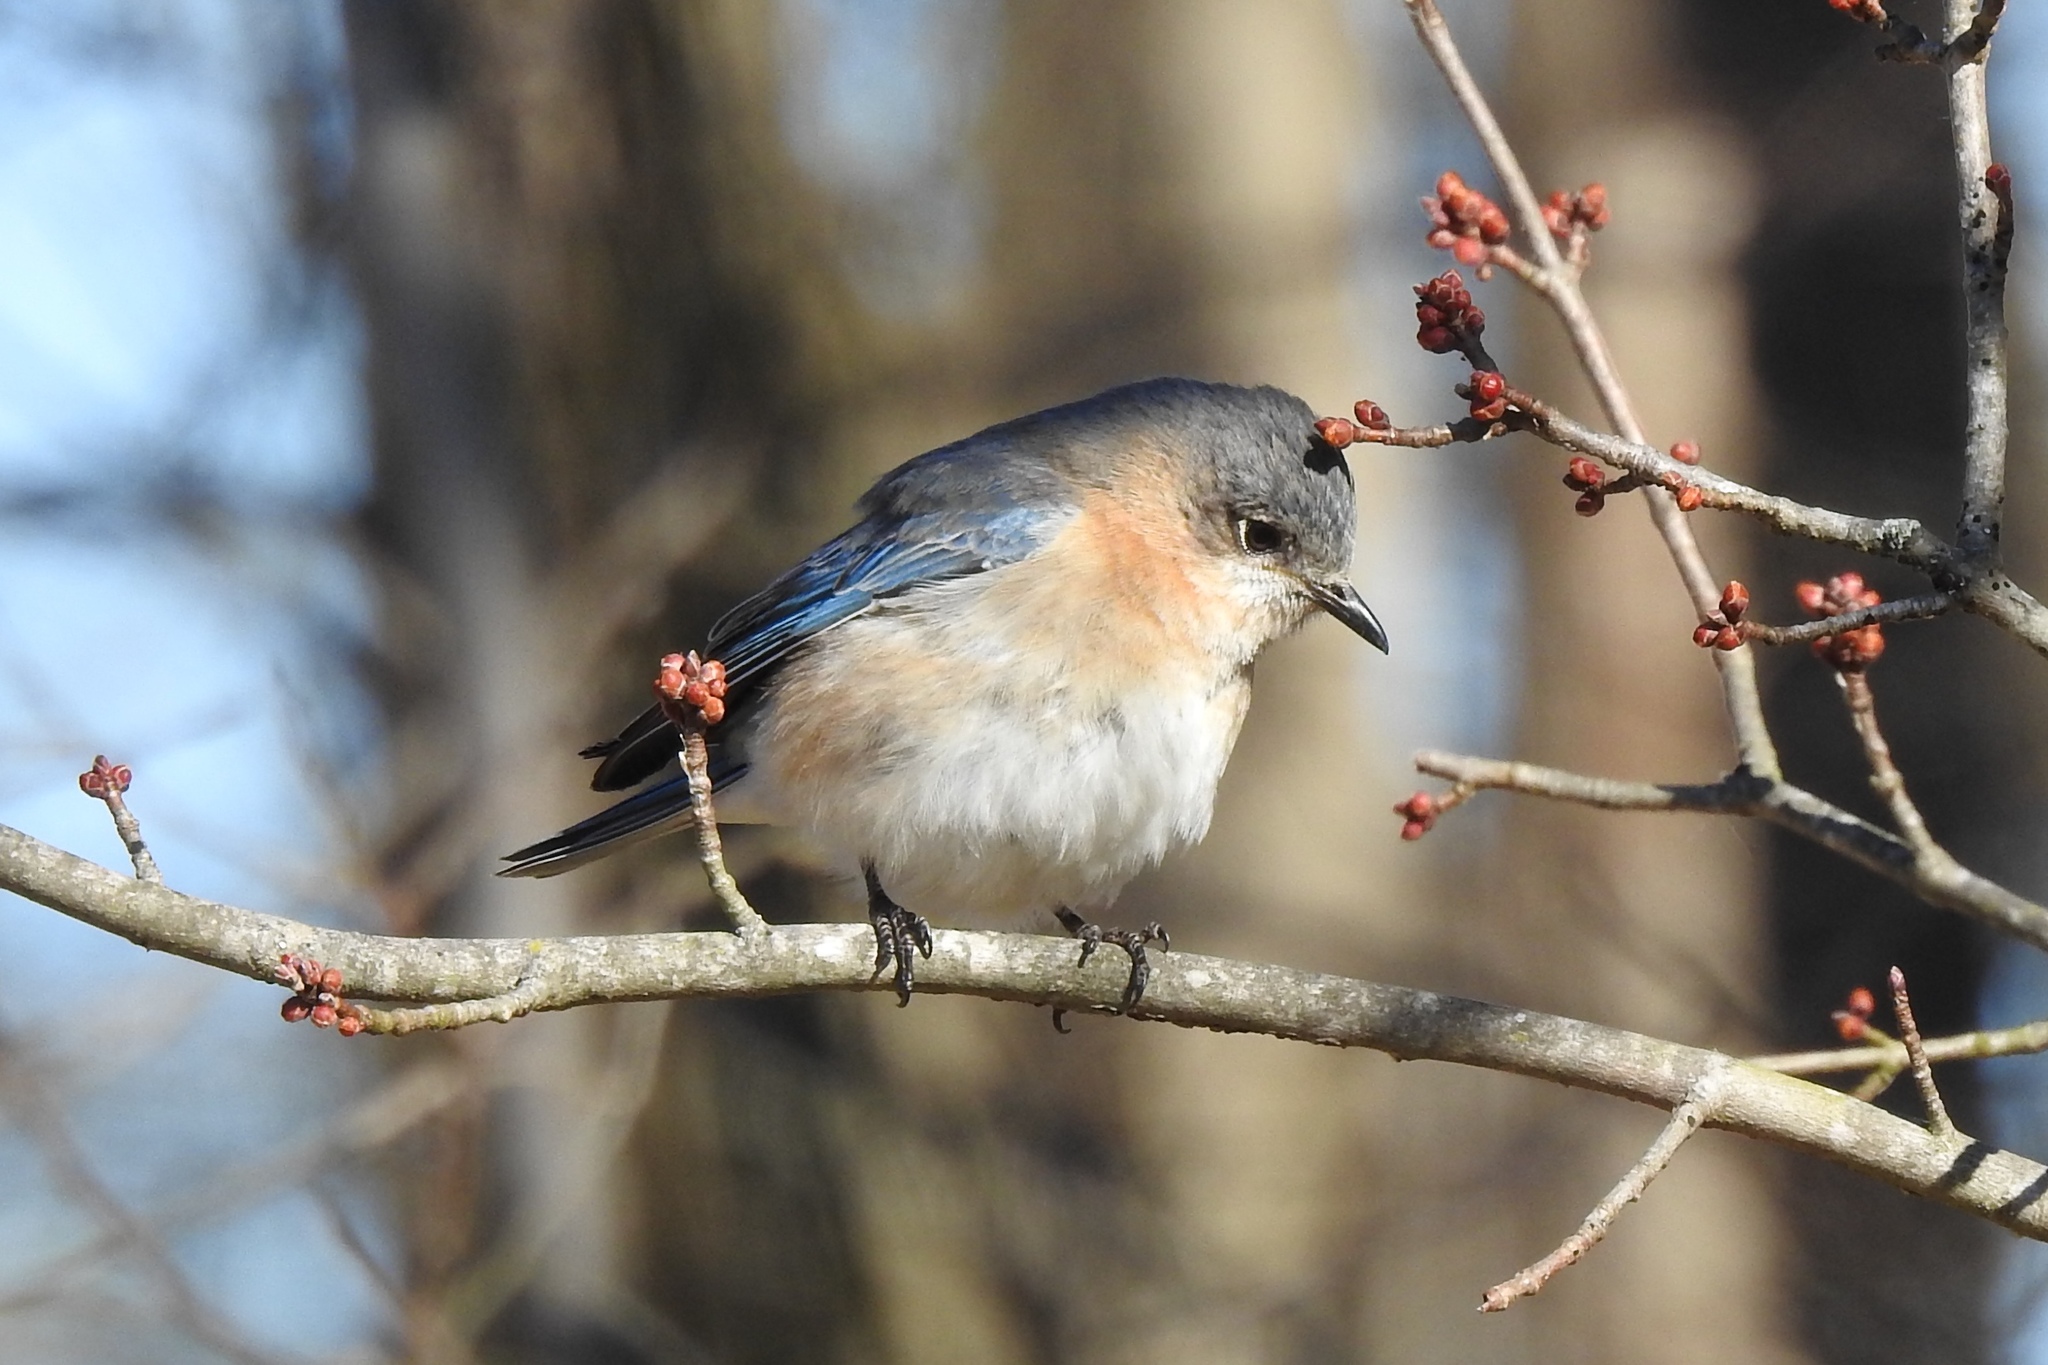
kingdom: Animalia
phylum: Chordata
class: Aves
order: Passeriformes
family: Turdidae
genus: Sialia
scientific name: Sialia sialis
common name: Eastern bluebird
